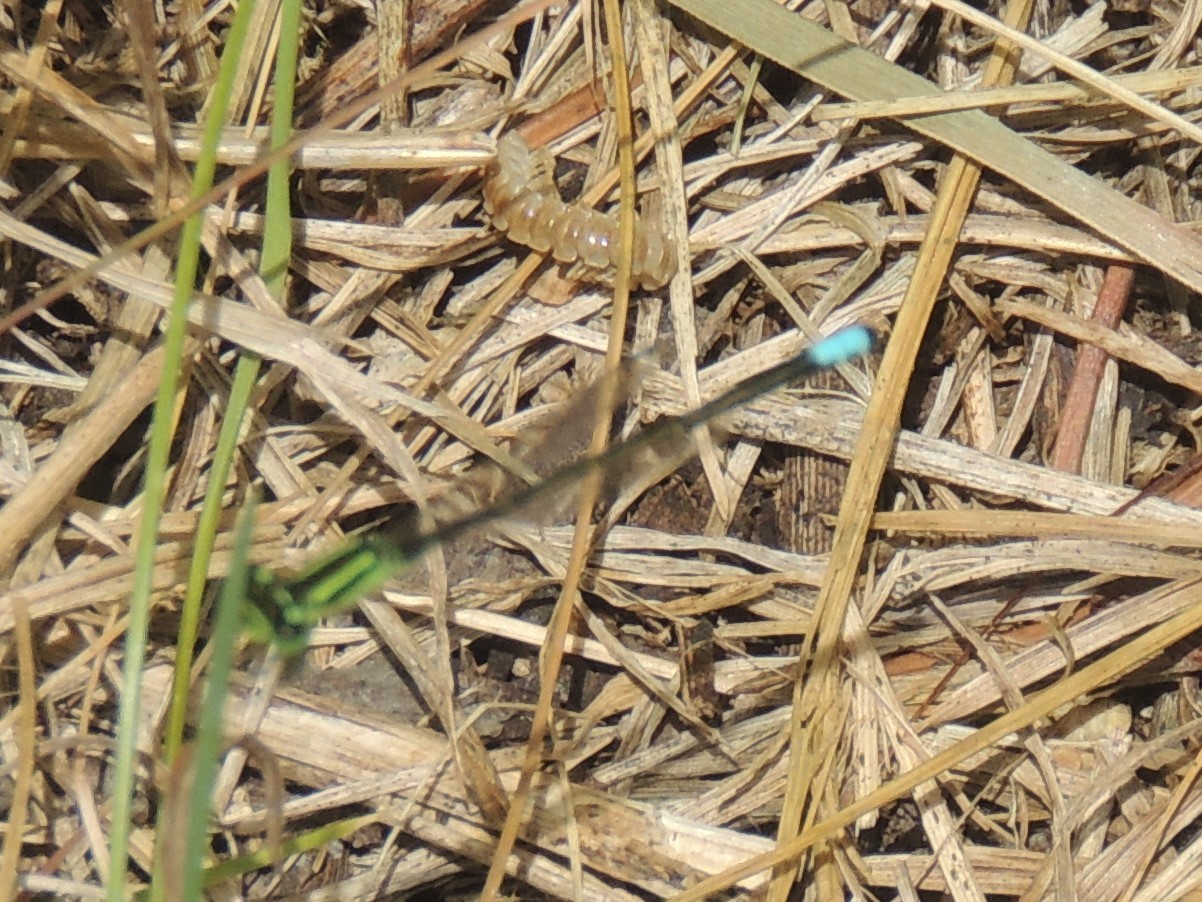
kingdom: Animalia
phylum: Arthropoda
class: Insecta
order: Odonata
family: Coenagrionidae
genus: Ischnura
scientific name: Ischnura verticalis
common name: Eastern forktail
